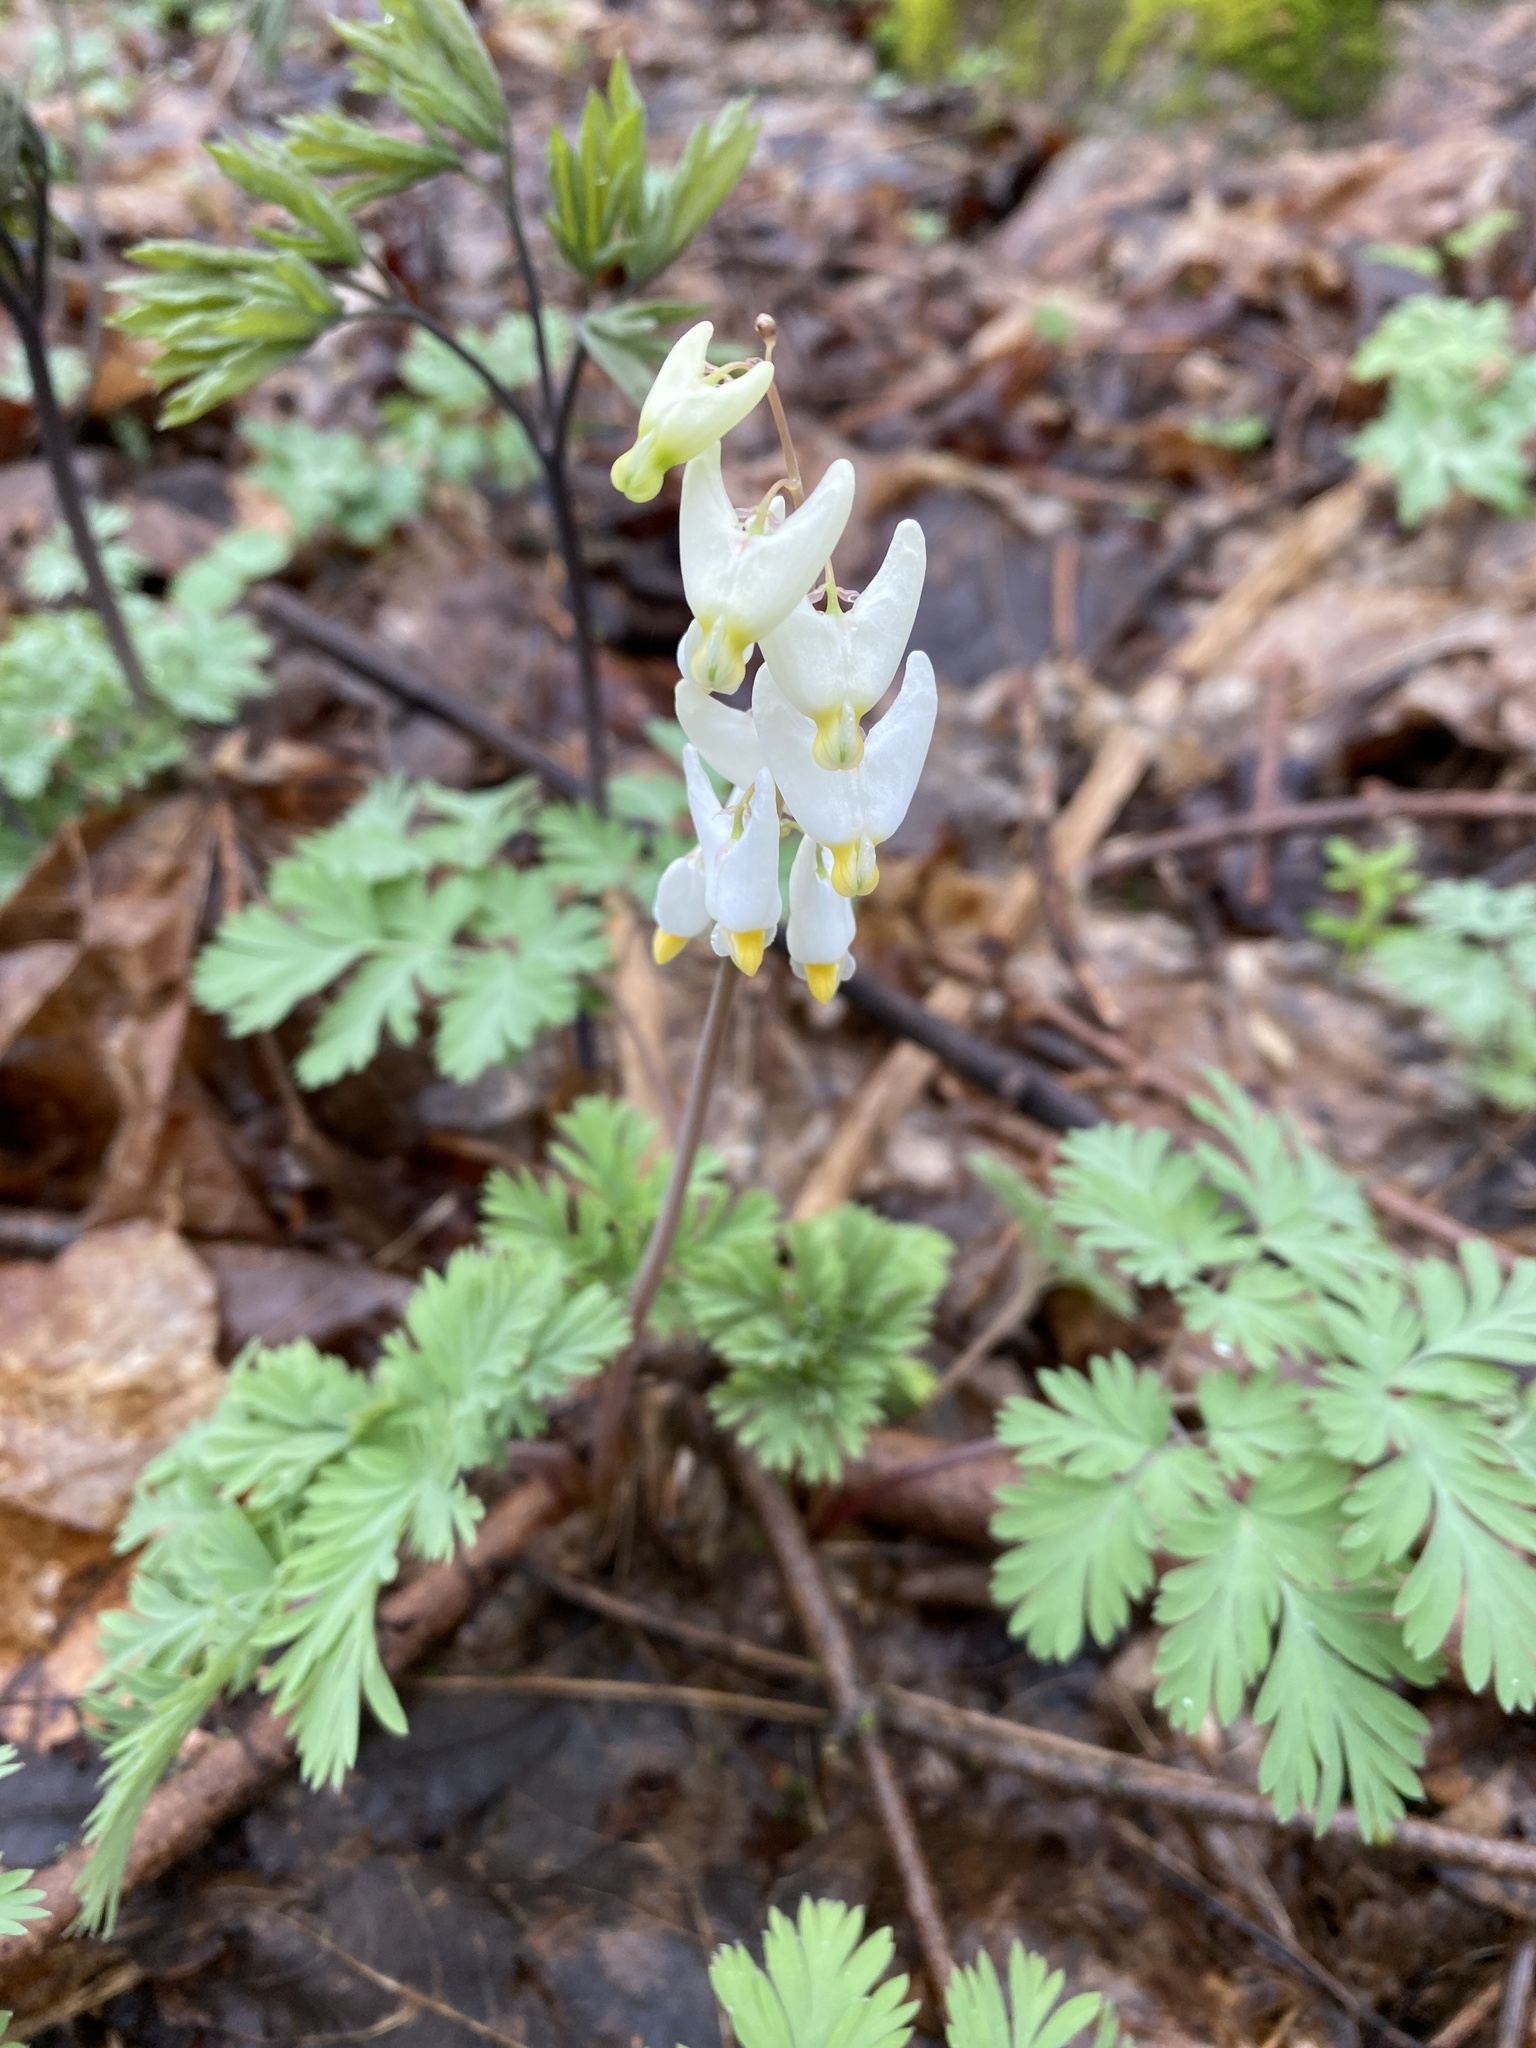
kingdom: Plantae
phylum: Tracheophyta
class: Magnoliopsida
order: Ranunculales
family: Papaveraceae
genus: Dicentra
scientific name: Dicentra cucullaria
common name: Dutchman's breeches
